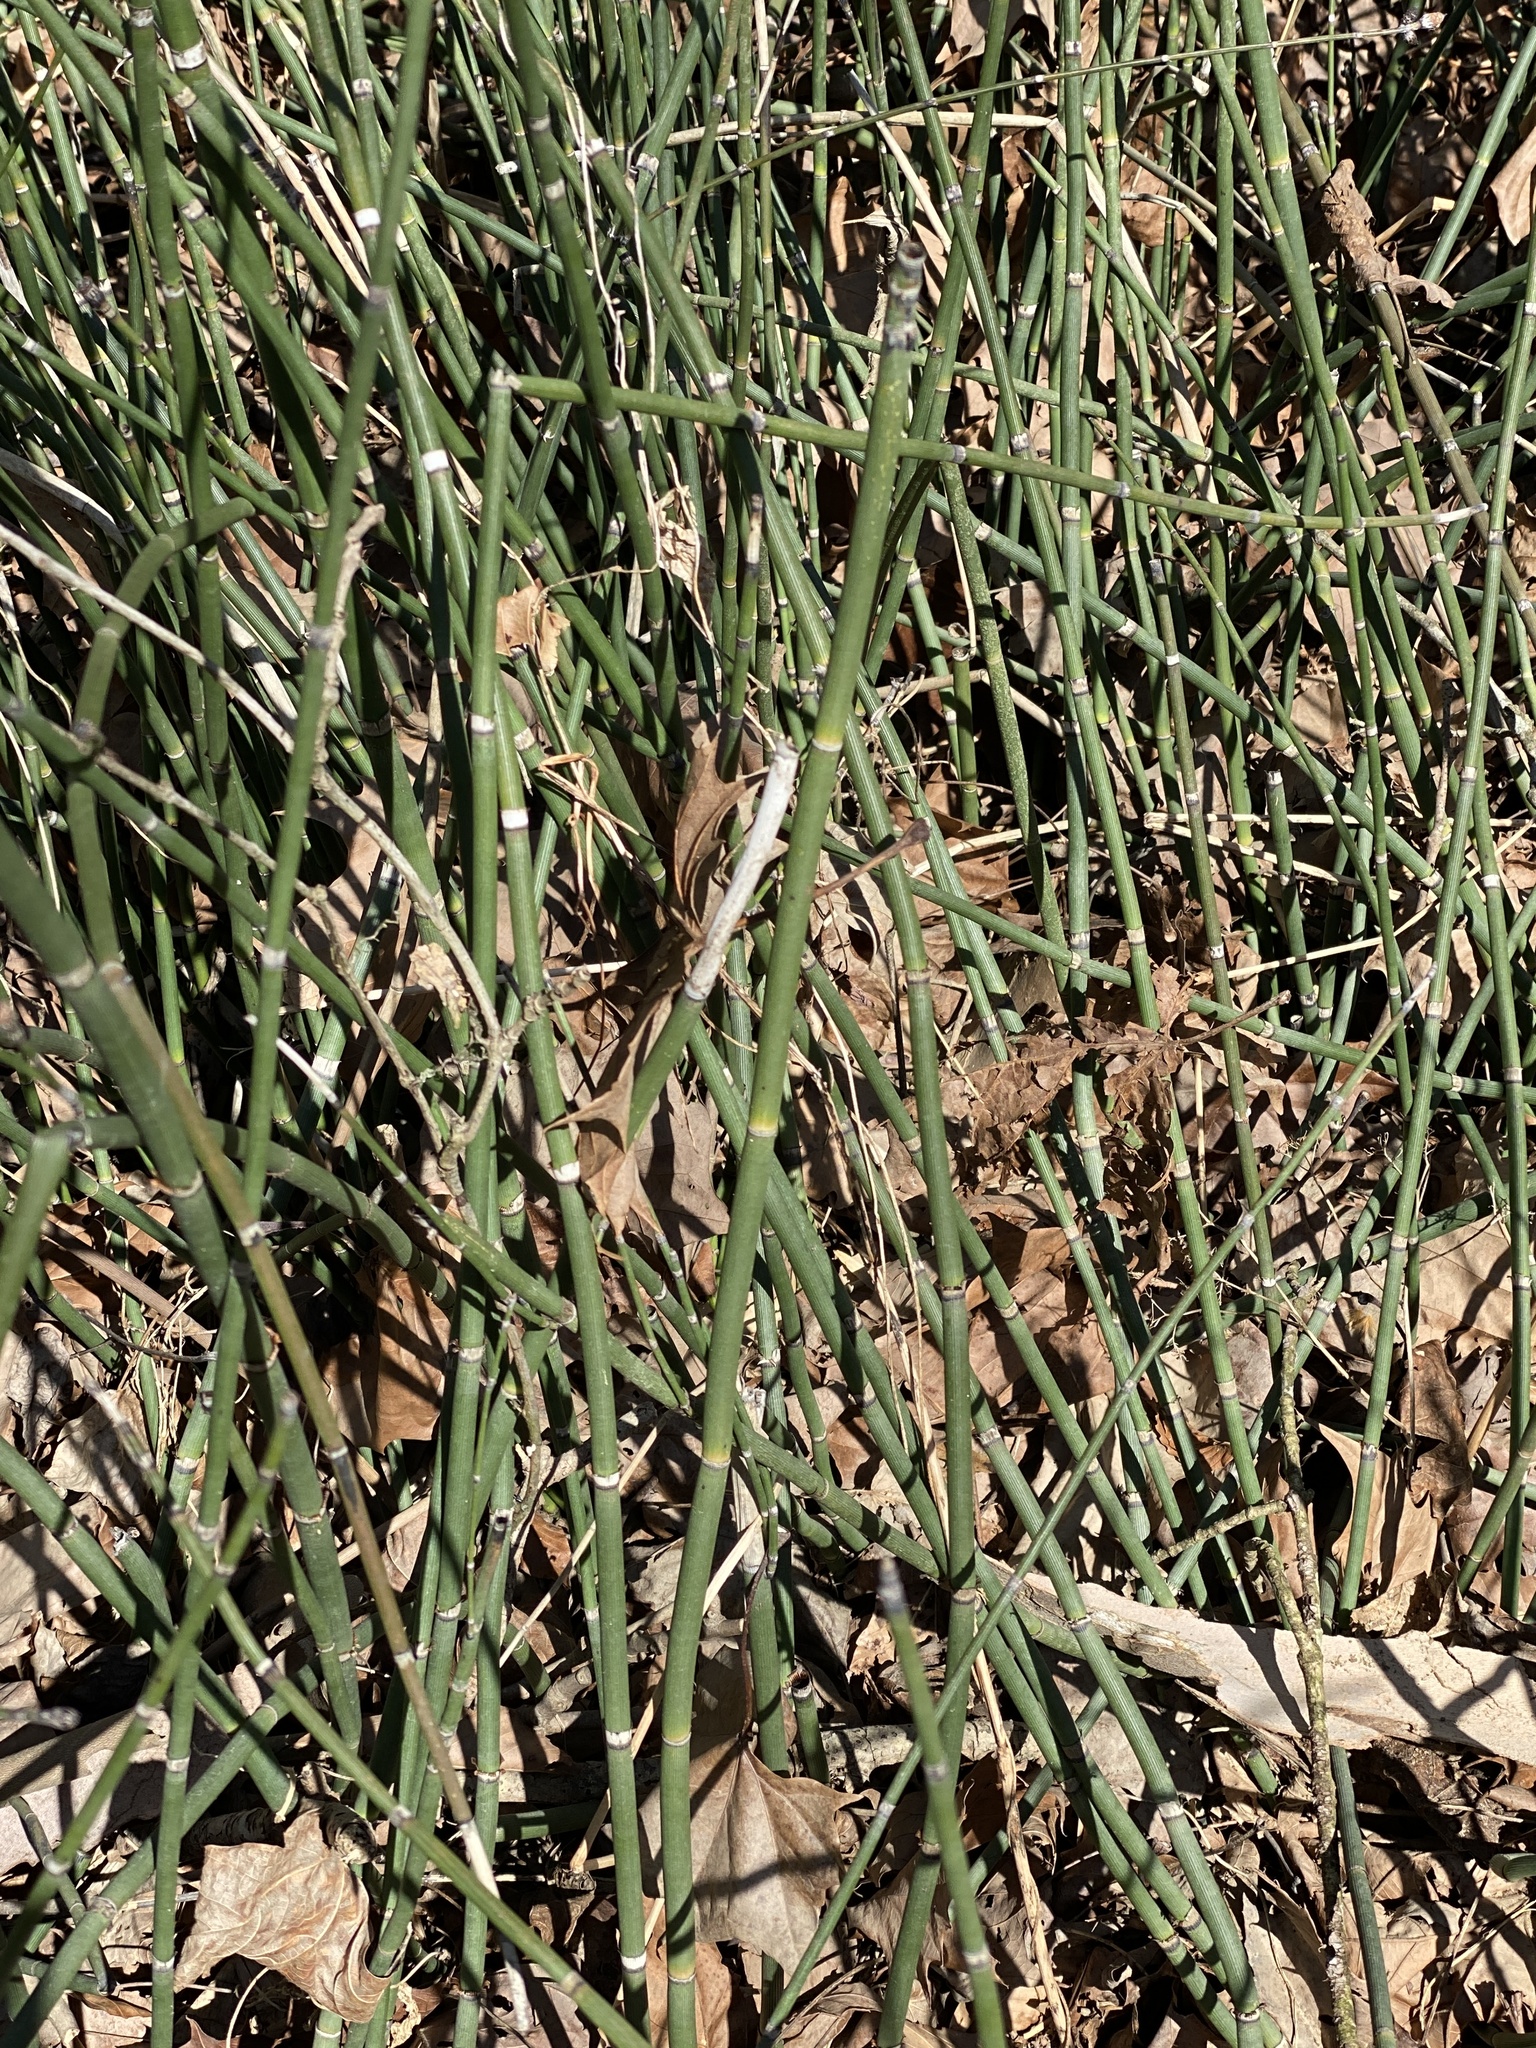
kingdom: Plantae
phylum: Tracheophyta
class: Polypodiopsida
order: Equisetales
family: Equisetaceae
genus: Equisetum
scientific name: Equisetum praealtum
